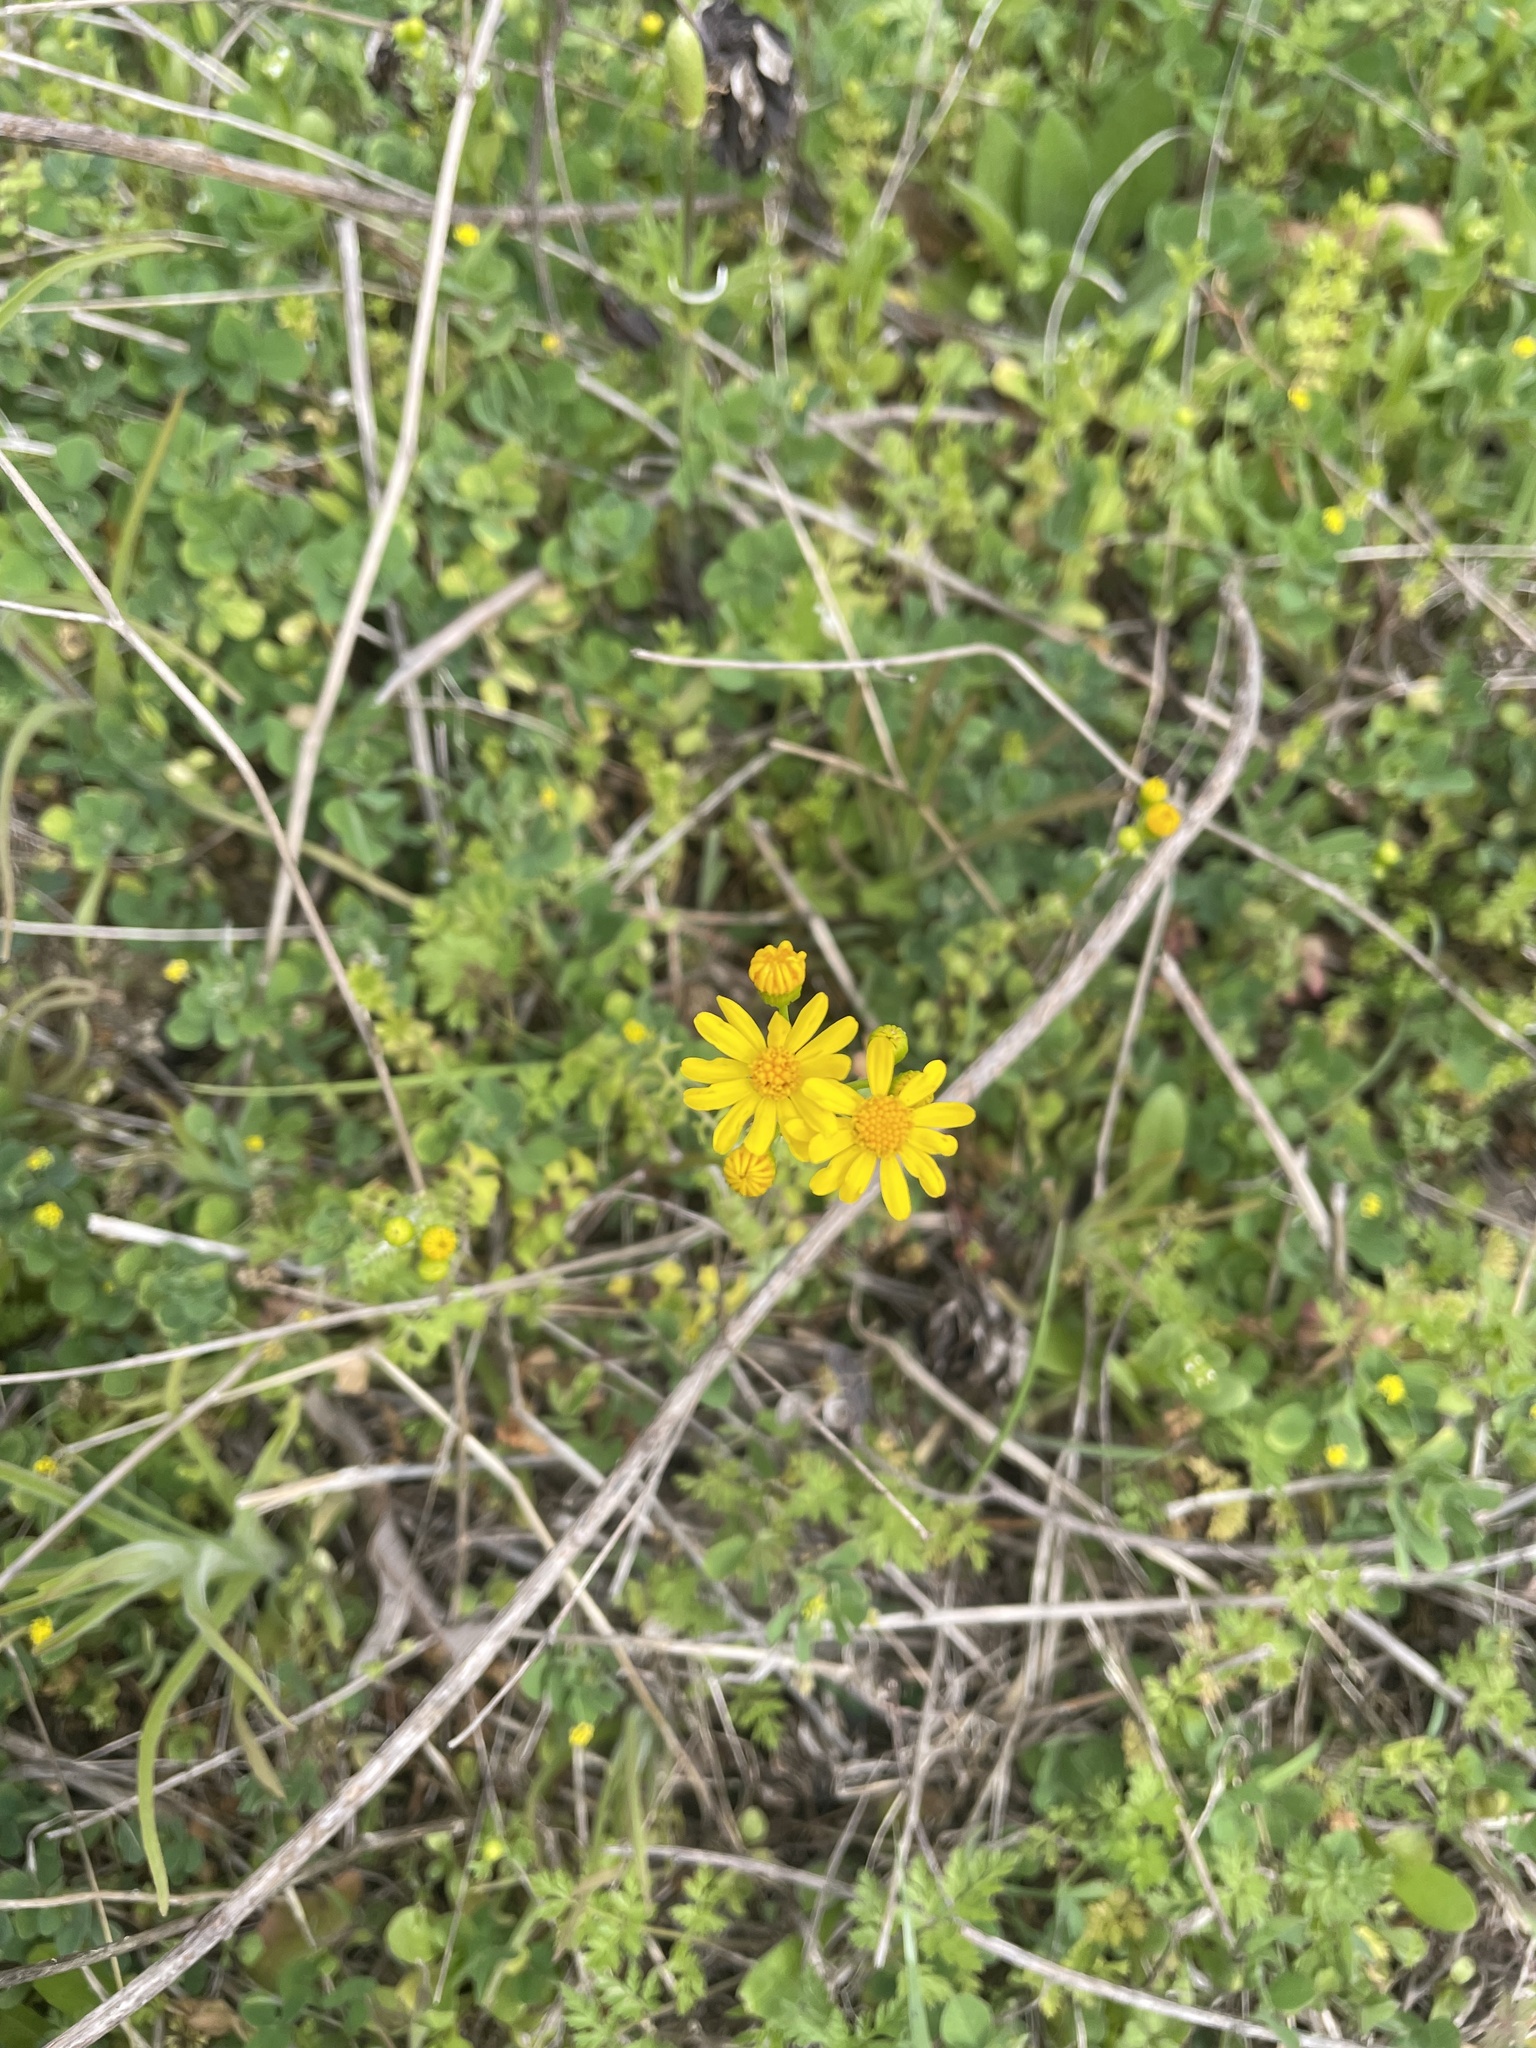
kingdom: Plantae
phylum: Tracheophyta
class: Magnoliopsida
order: Asterales
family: Asteraceae
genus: Packera
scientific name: Packera tampicana
